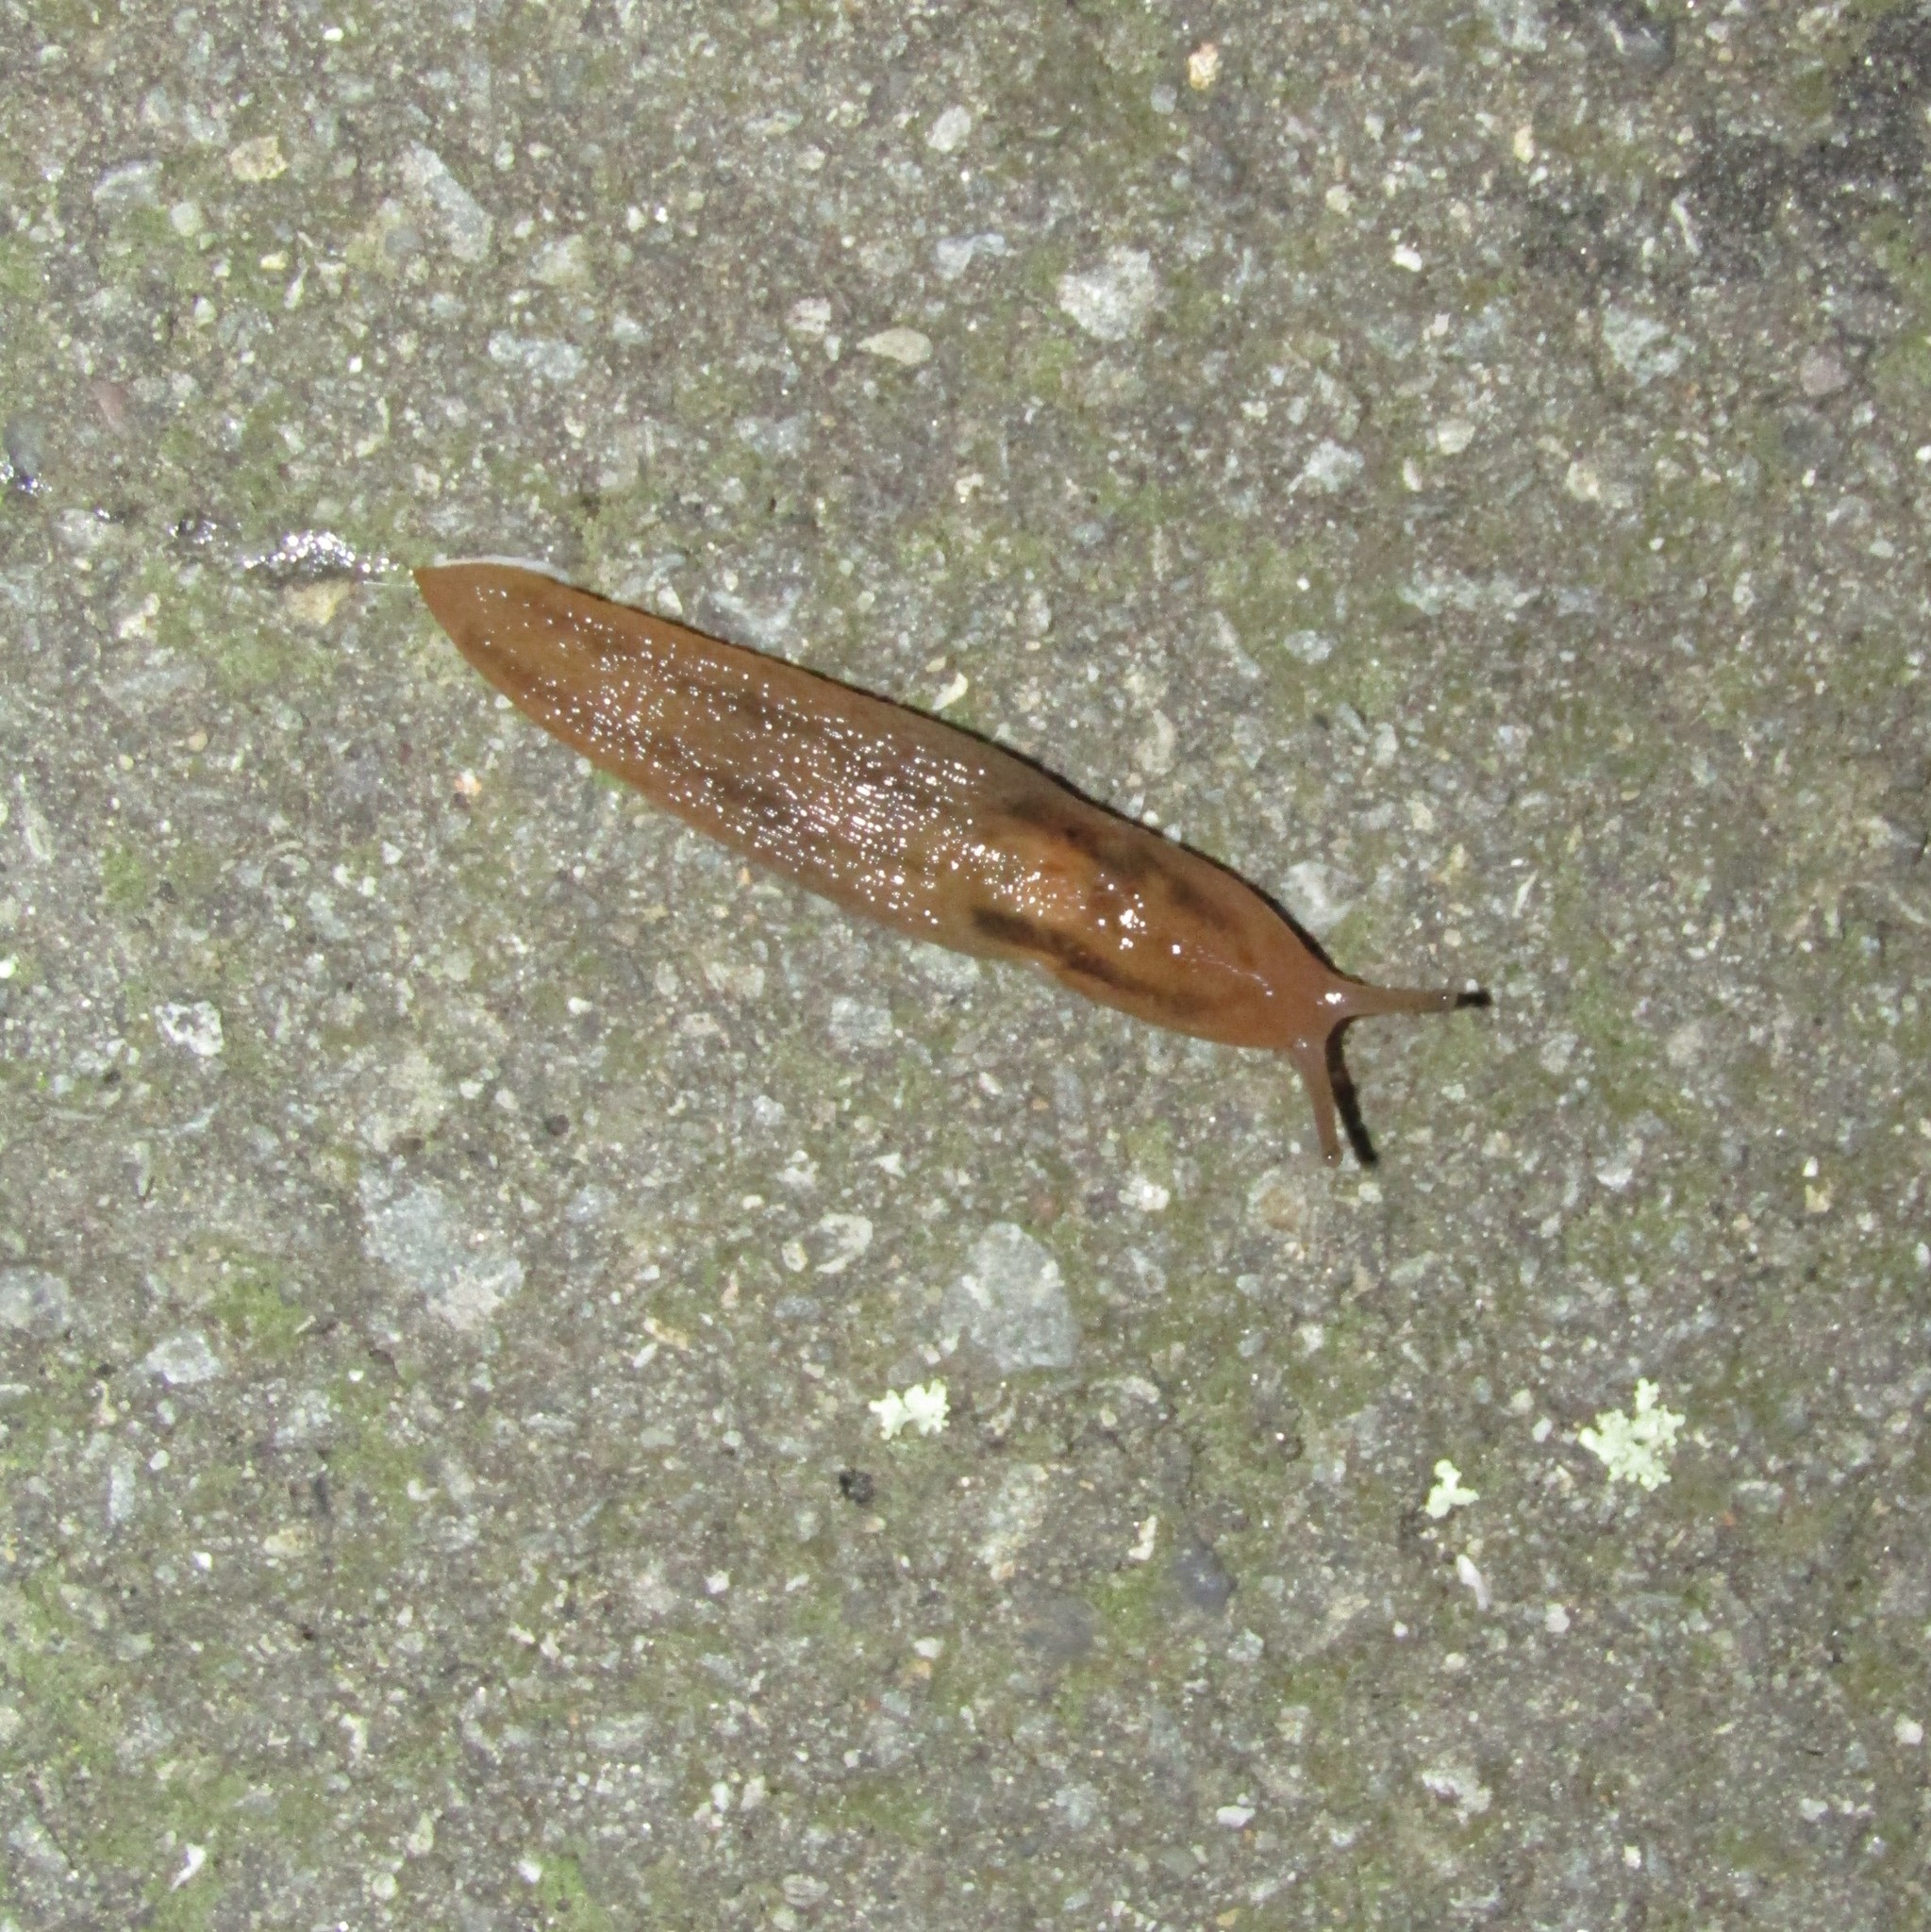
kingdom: Animalia
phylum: Mollusca
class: Gastropoda
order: Stylommatophora
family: Limacidae
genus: Ambigolimax
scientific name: Ambigolimax
